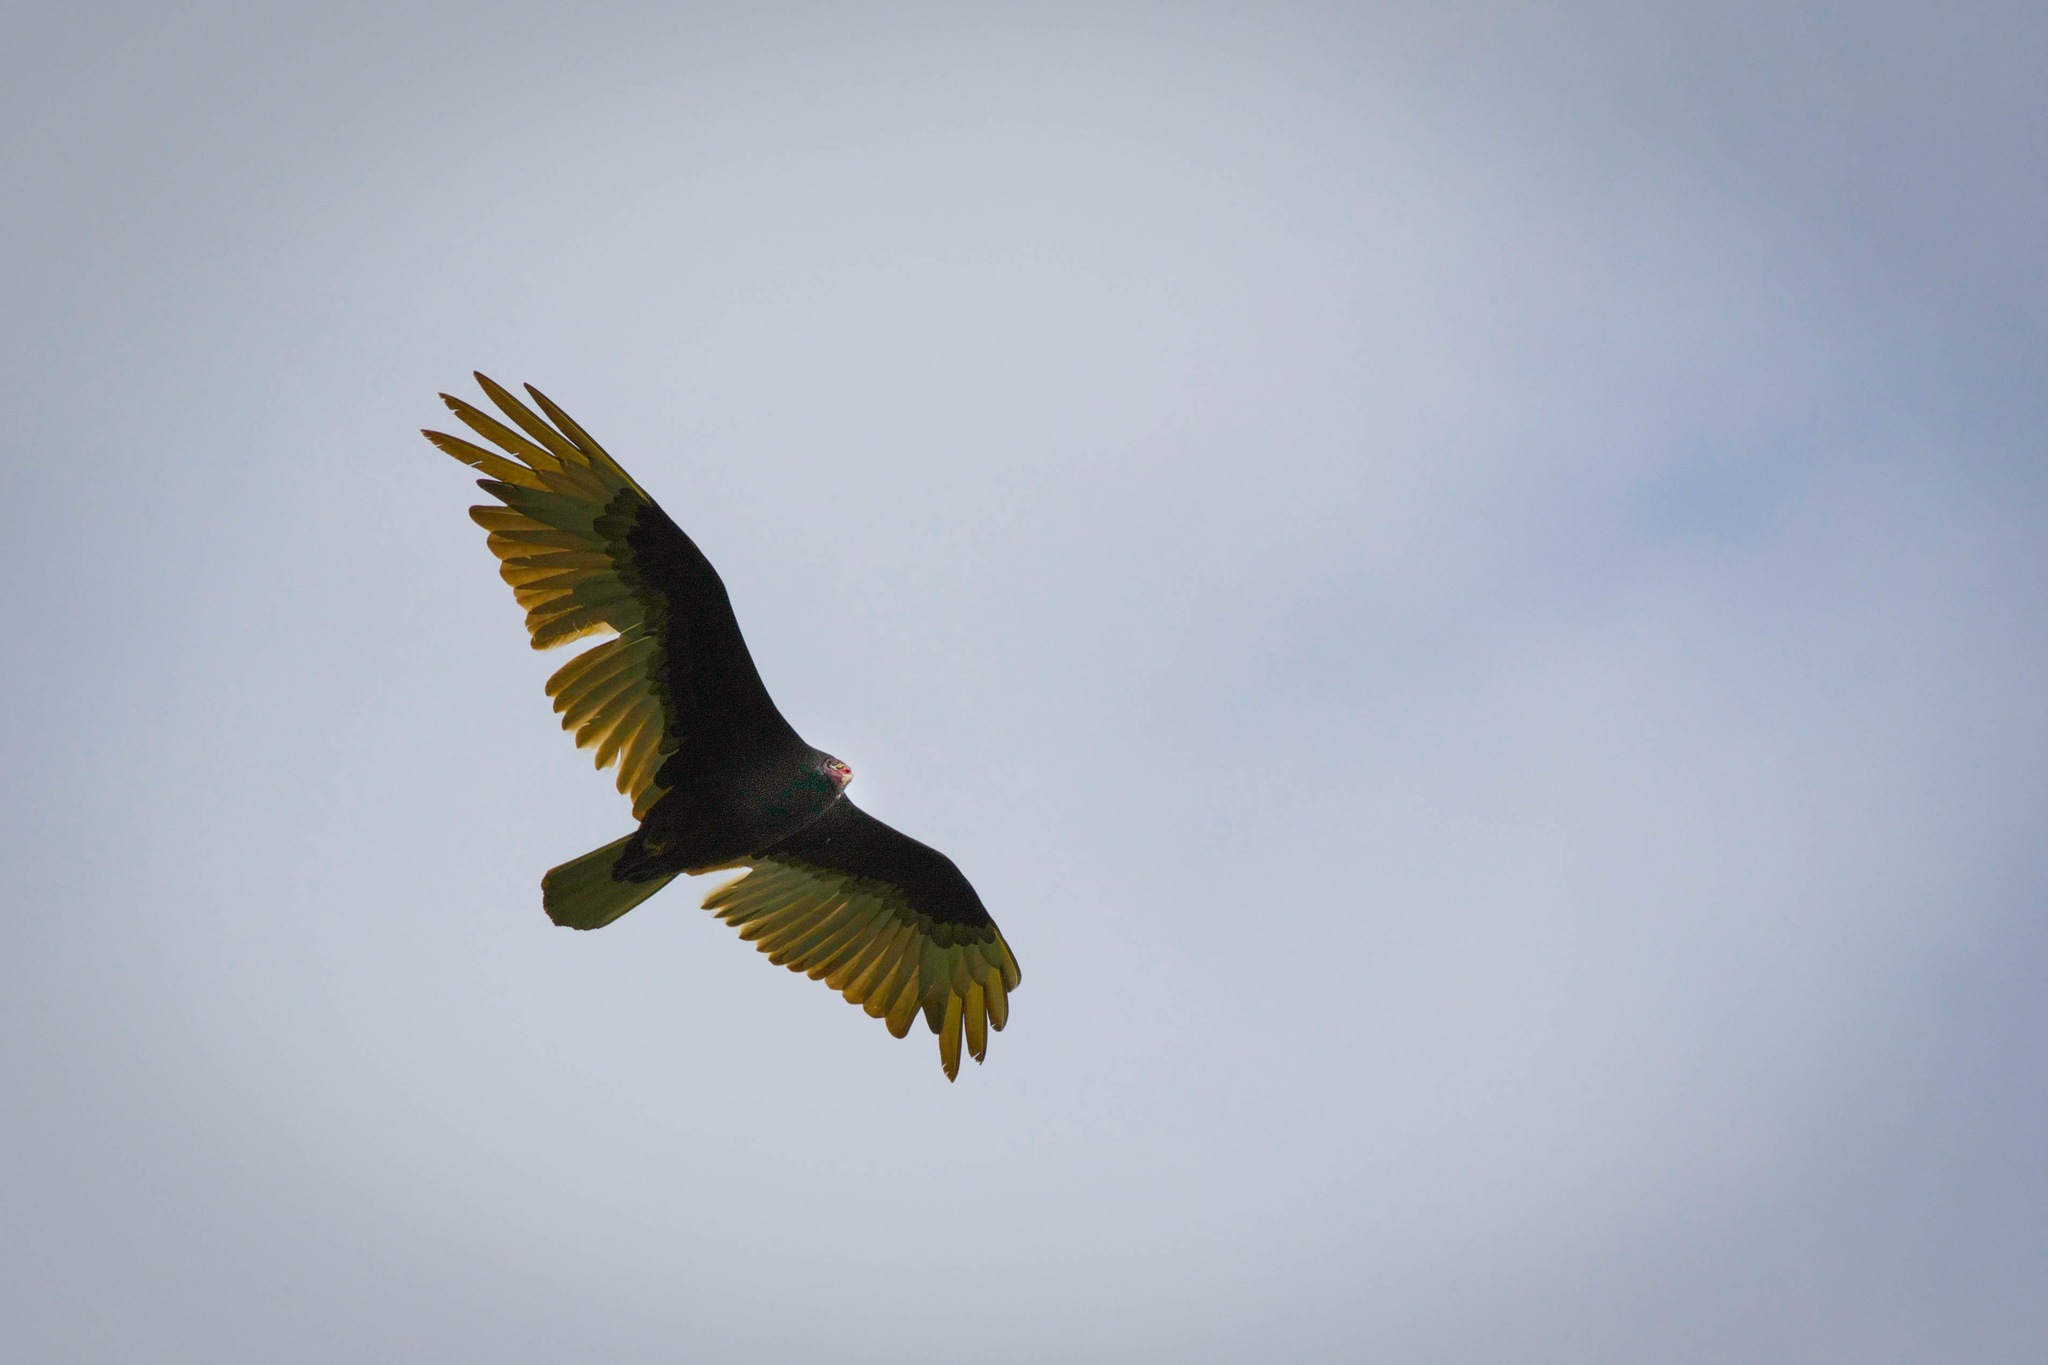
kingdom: Animalia
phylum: Chordata
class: Aves
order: Accipitriformes
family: Cathartidae
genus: Cathartes
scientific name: Cathartes aura
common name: Turkey vulture
